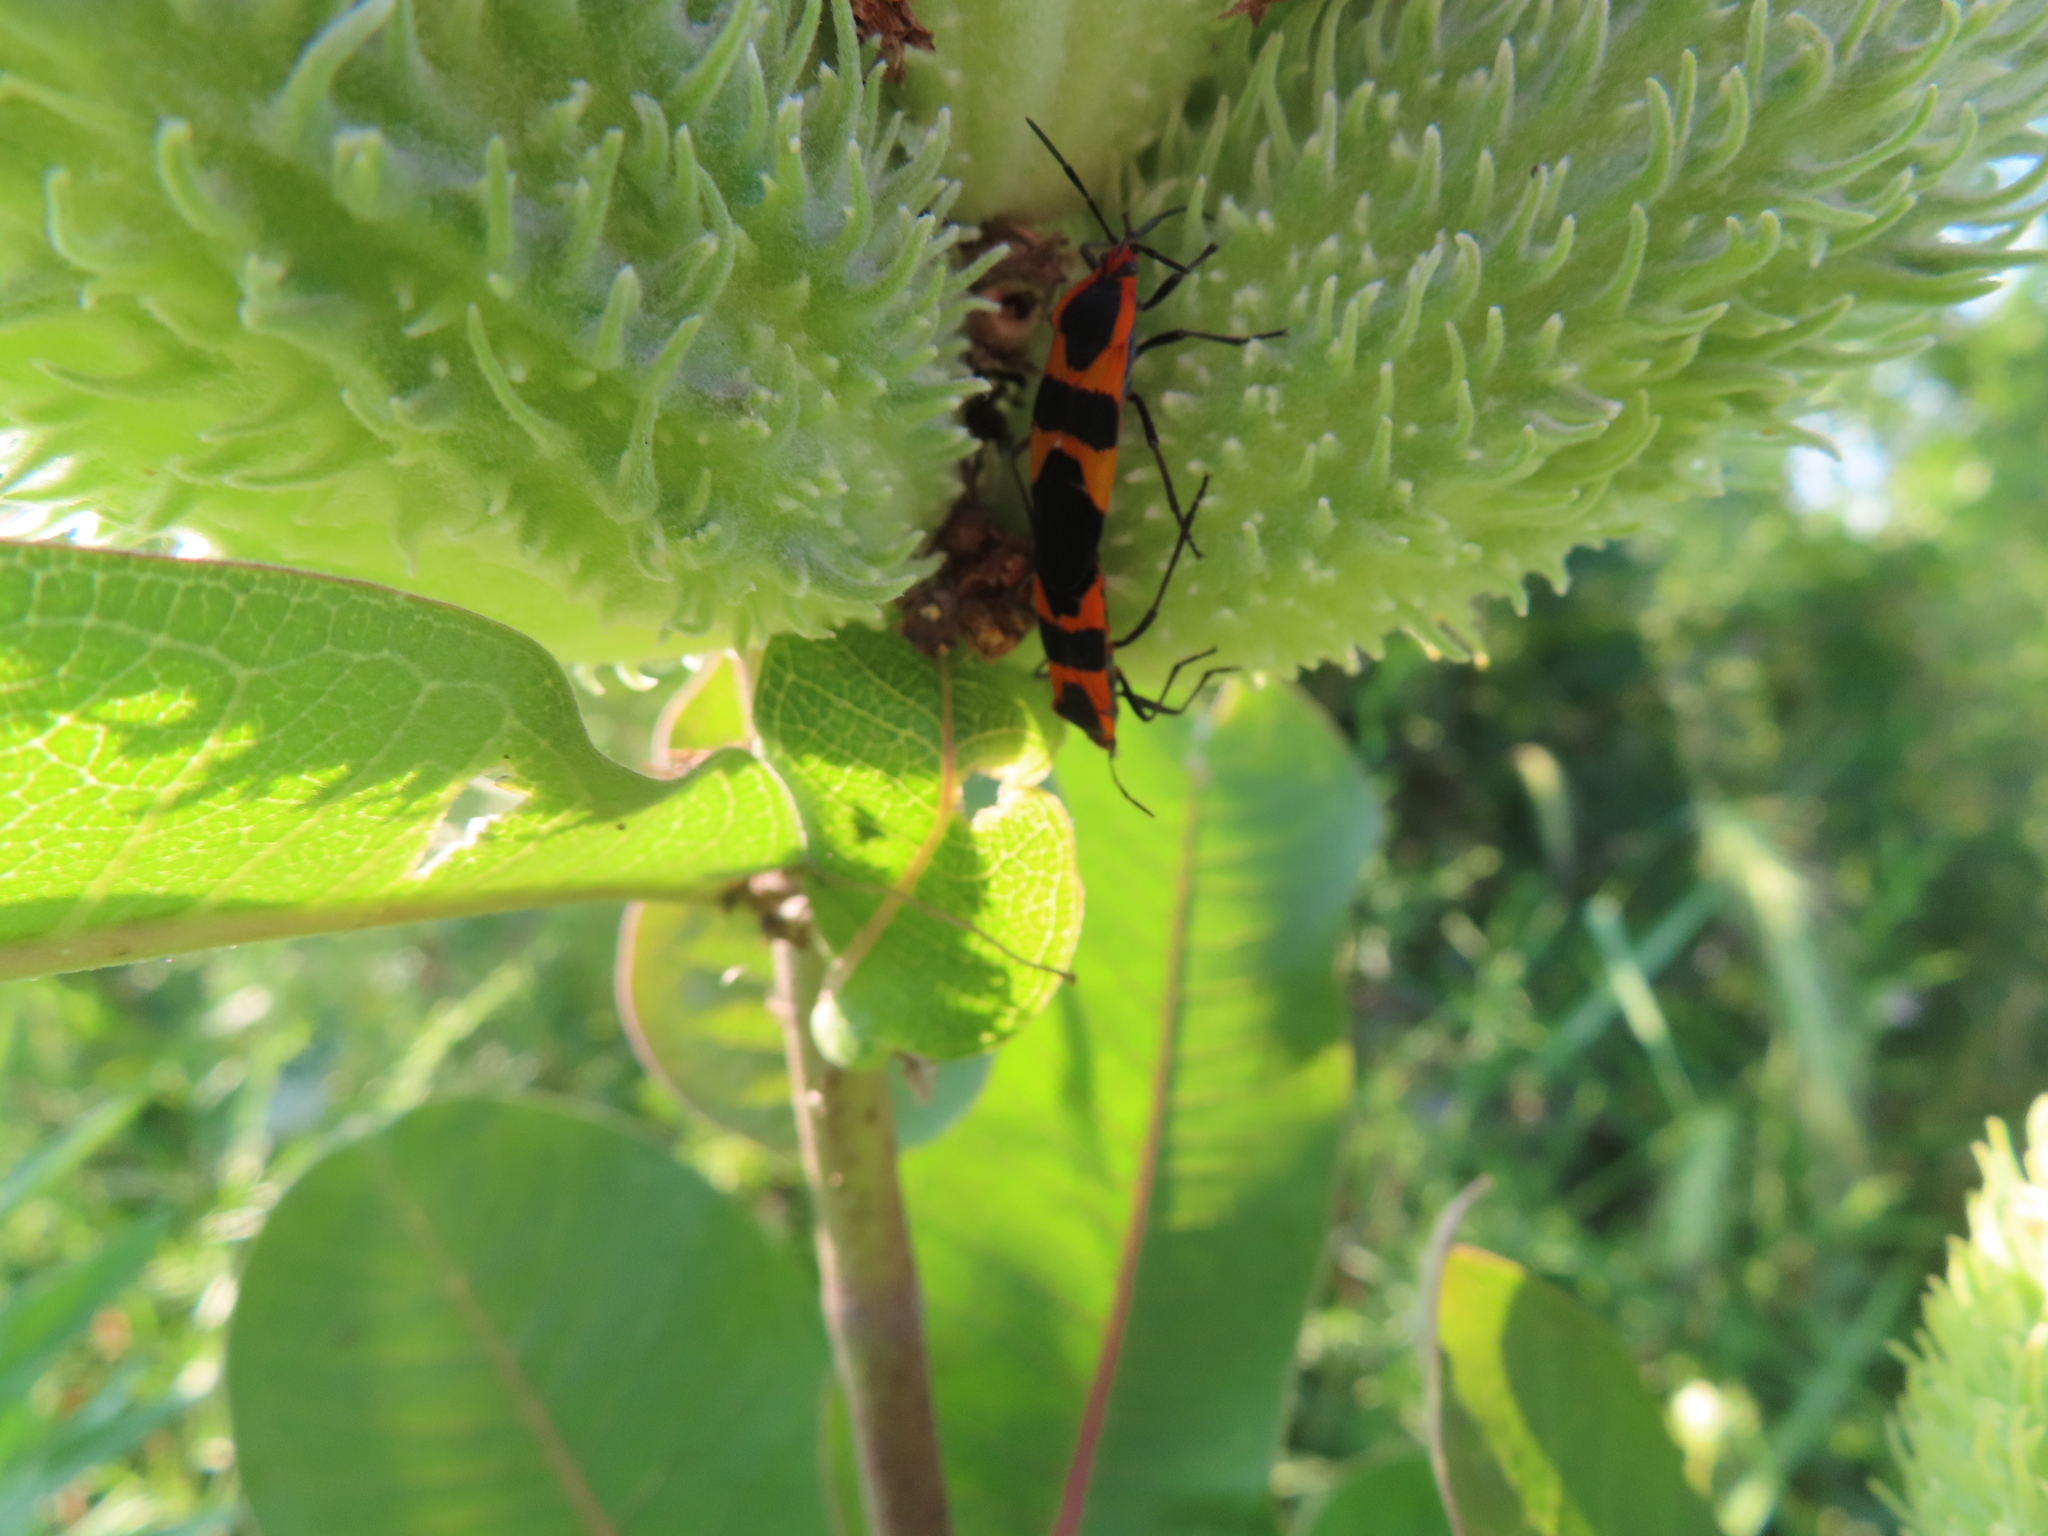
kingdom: Animalia
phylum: Arthropoda
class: Insecta
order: Hemiptera
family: Lygaeidae
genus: Oncopeltus
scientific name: Oncopeltus fasciatus
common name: Large milkweed bug
